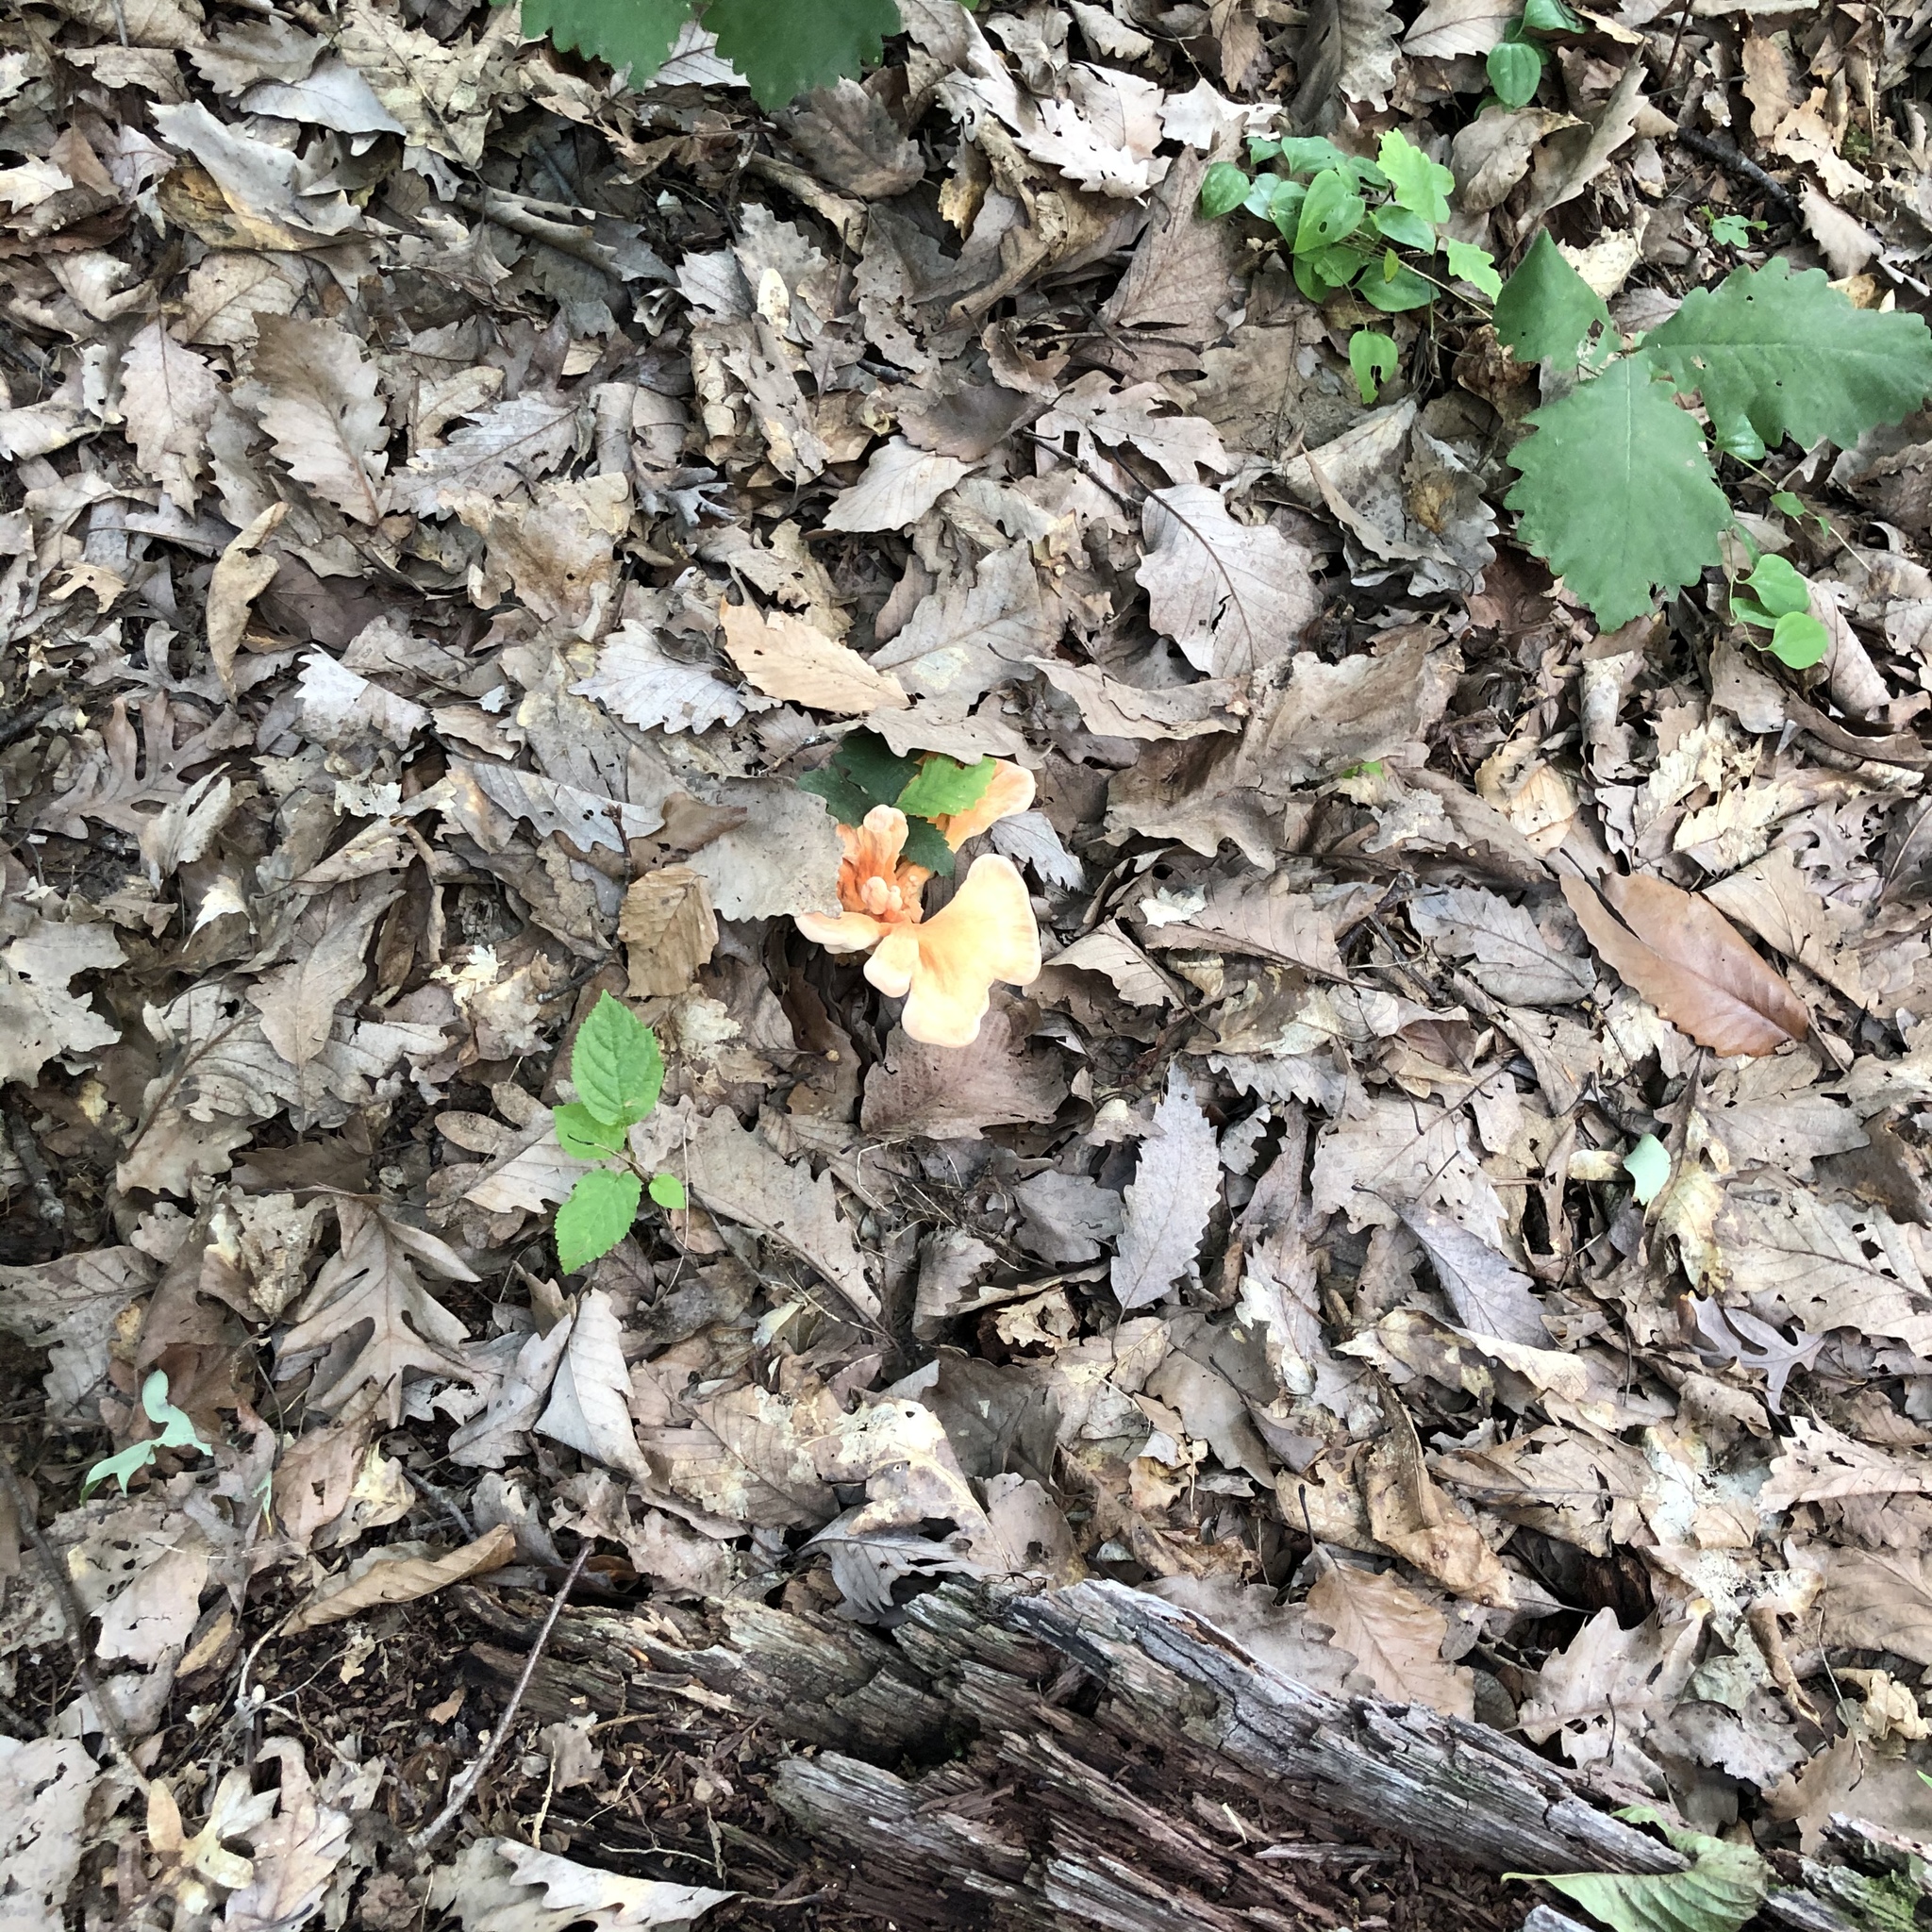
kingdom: Fungi
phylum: Basidiomycota
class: Agaricomycetes
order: Polyporales
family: Laetiporaceae
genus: Laetiporus
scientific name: Laetiporus sulphureus
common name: Chicken of the woods
